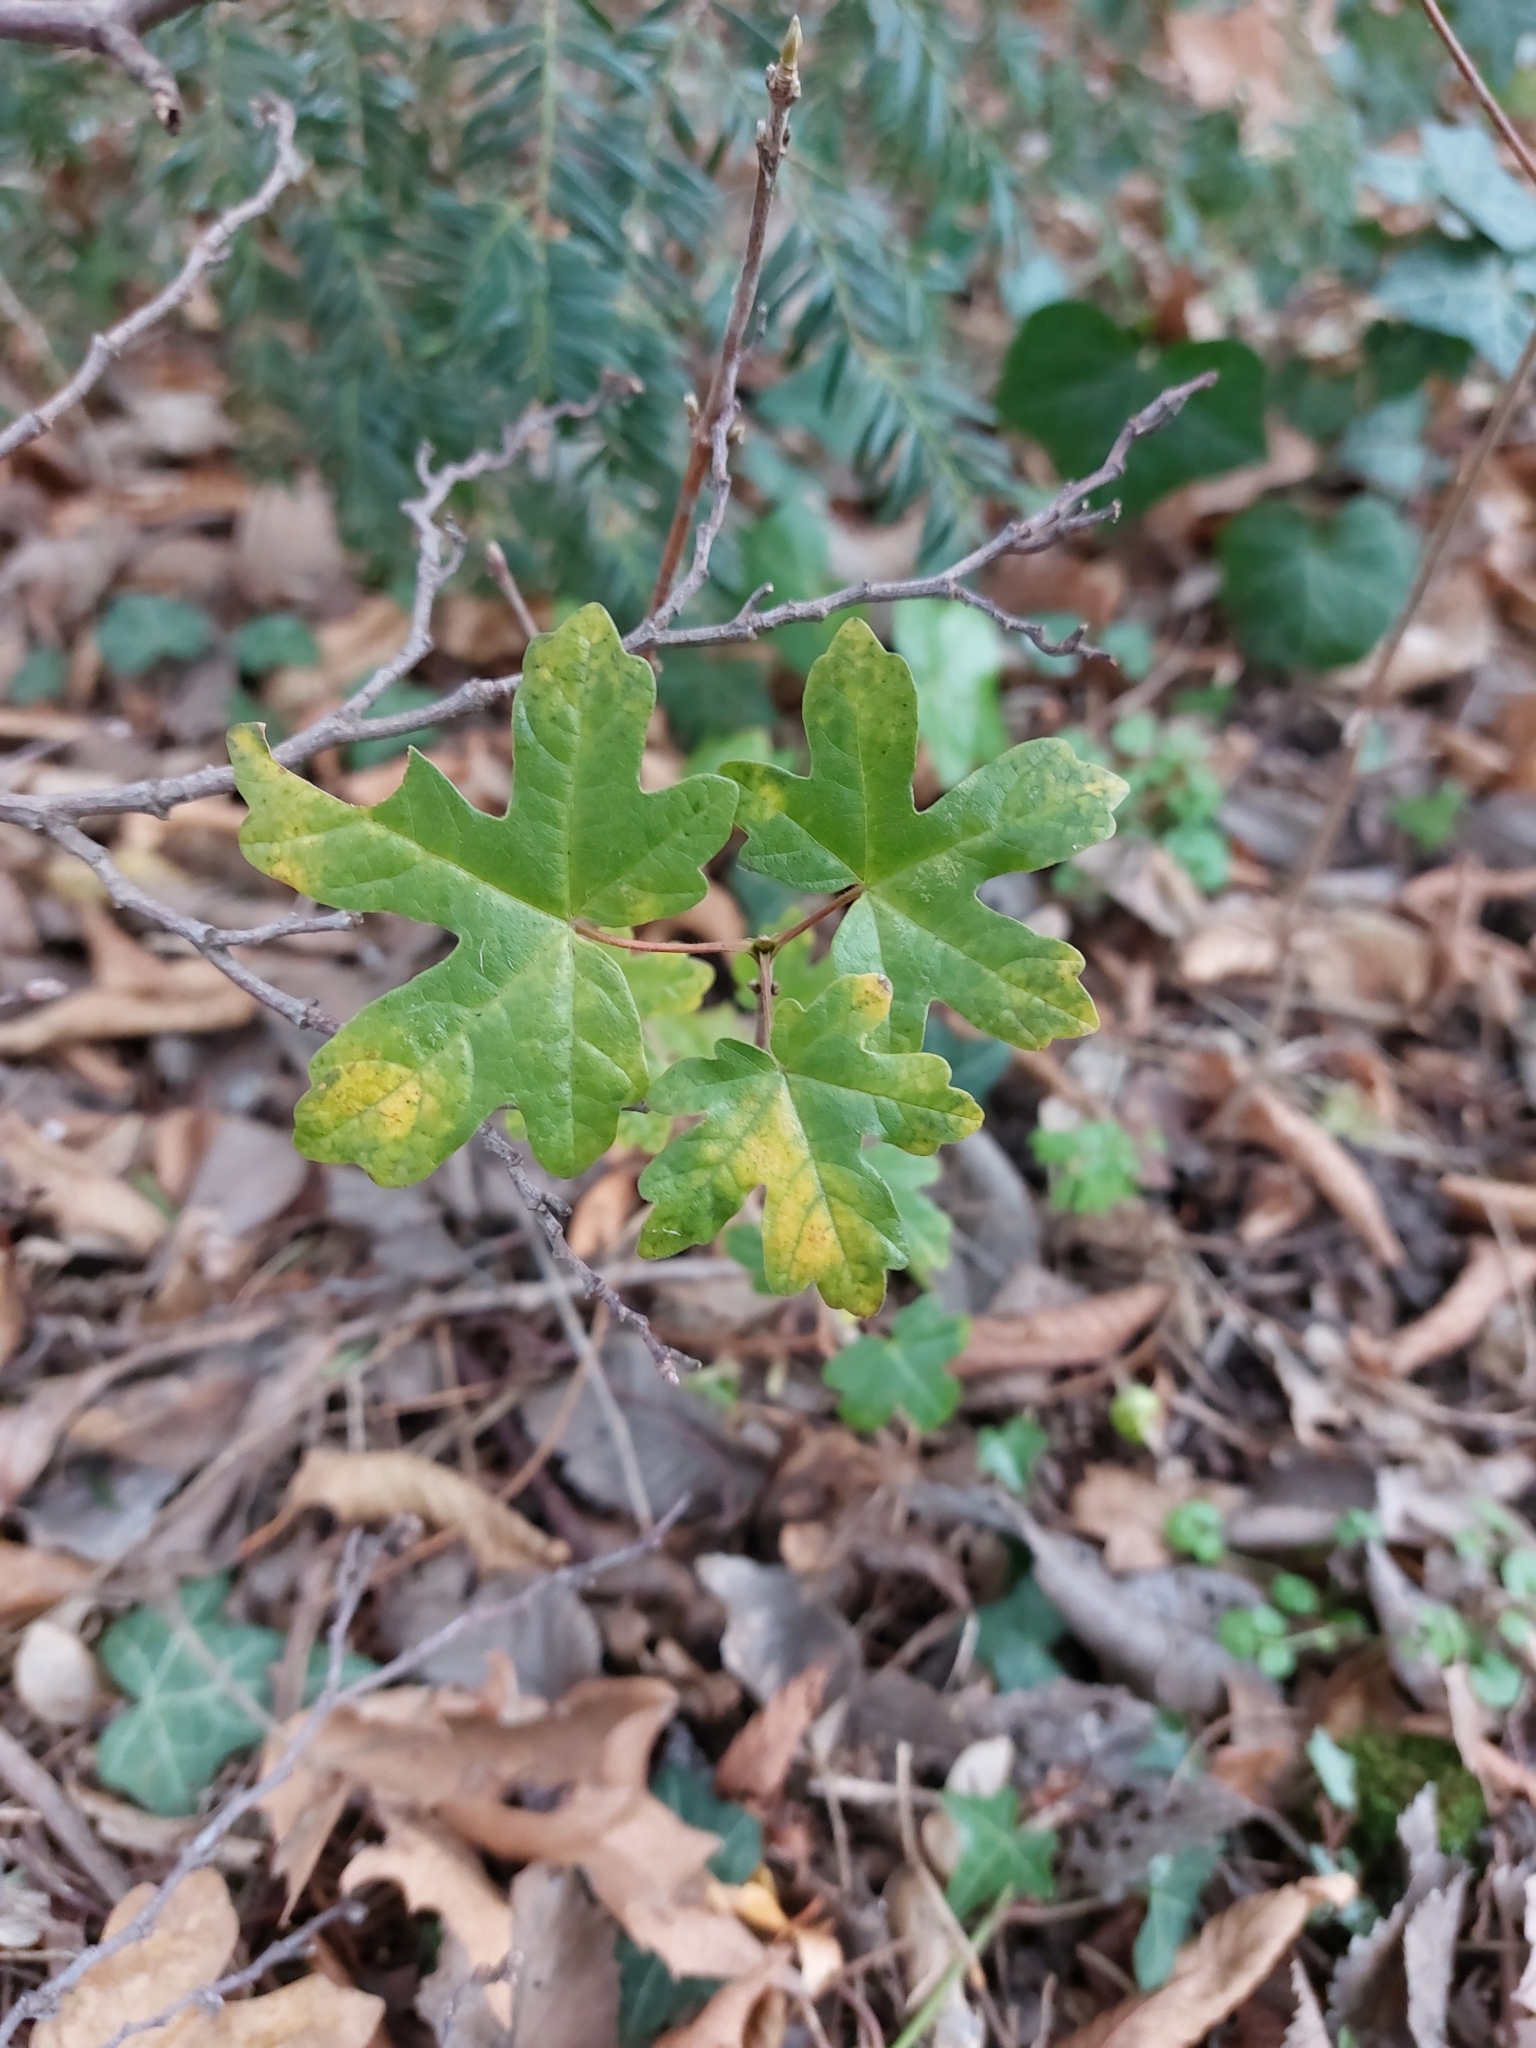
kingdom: Plantae
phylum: Tracheophyta
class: Magnoliopsida
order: Sapindales
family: Sapindaceae
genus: Acer
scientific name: Acer campestre
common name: Field maple
